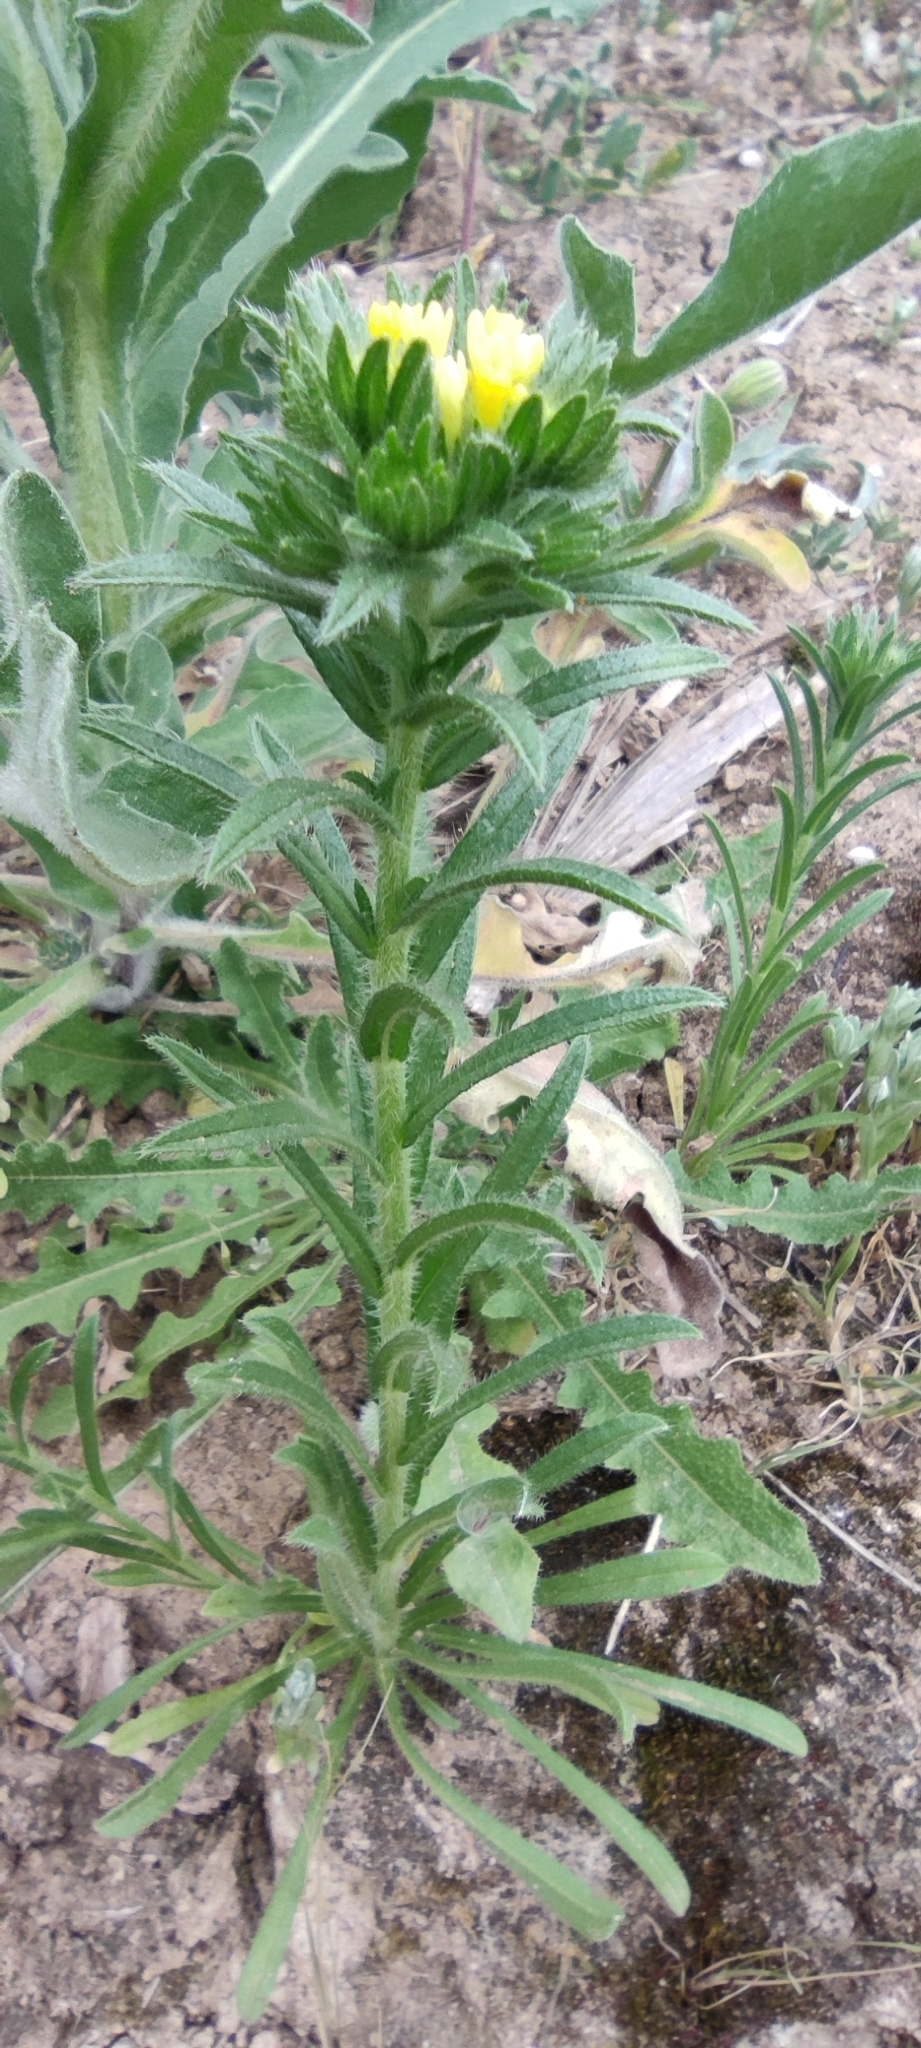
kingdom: Plantae
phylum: Tracheophyta
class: Magnoliopsida
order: Boraginales
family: Boraginaceae
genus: Neatostema
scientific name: Neatostema apulum
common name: Hairy sheepweed
